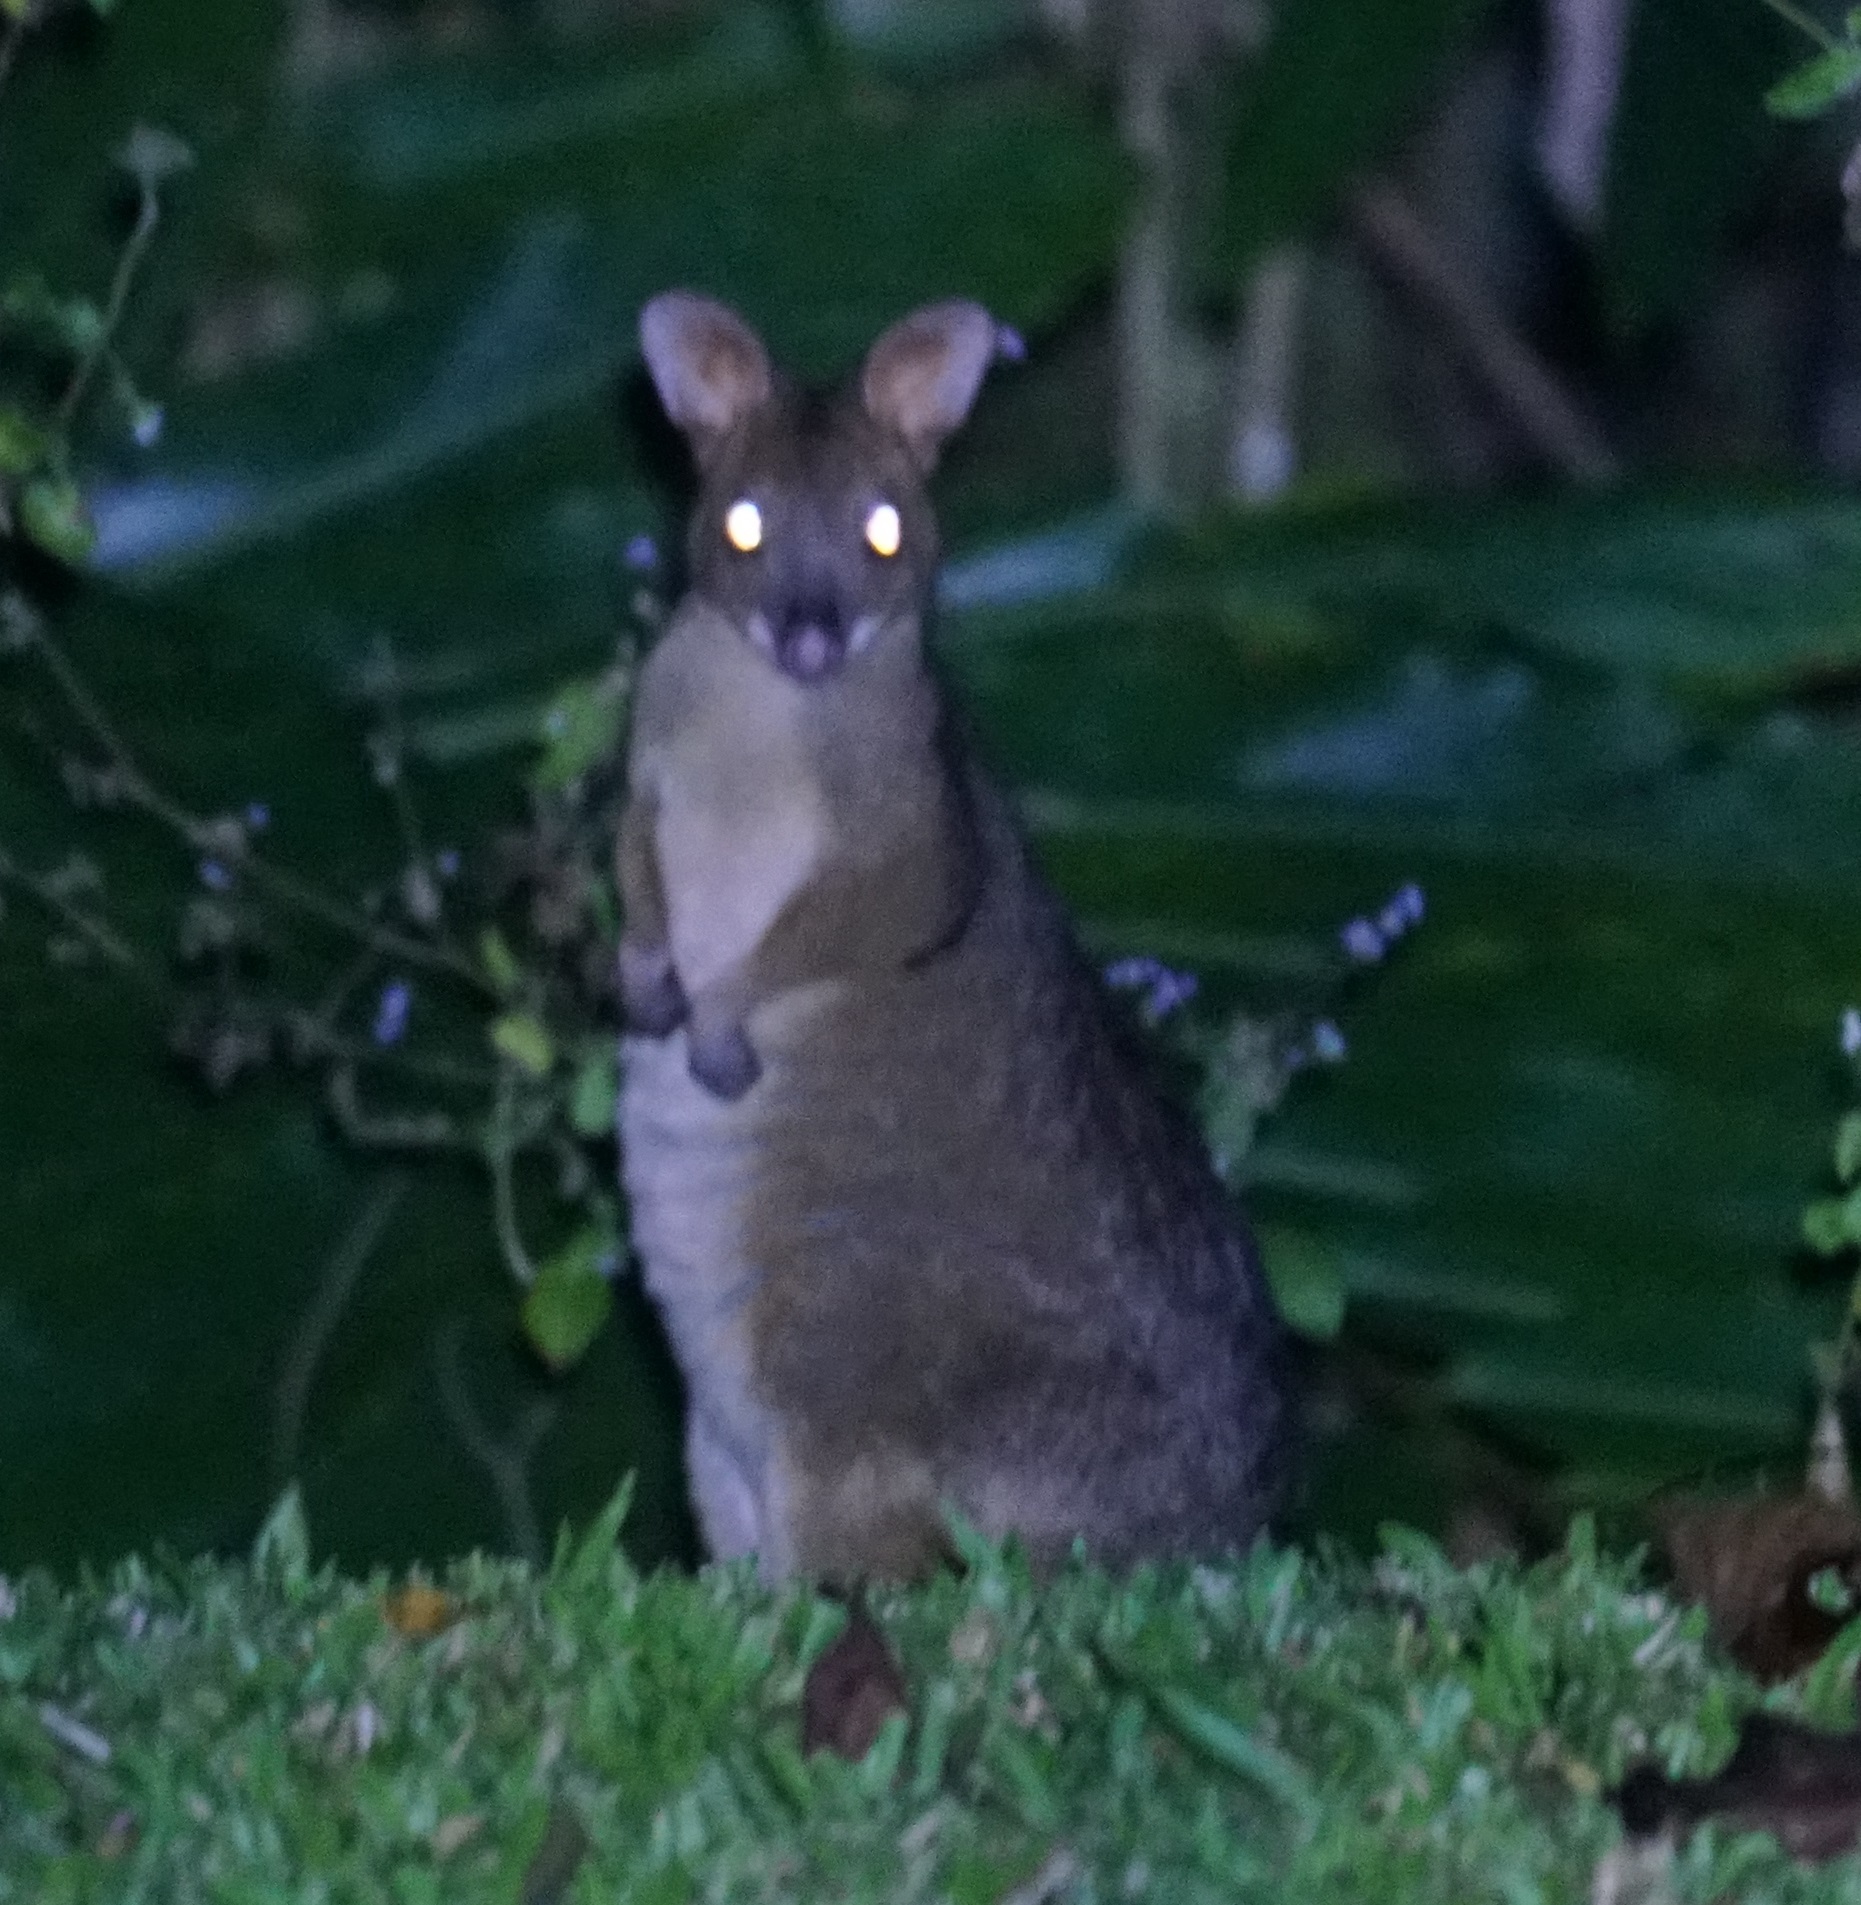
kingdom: Animalia
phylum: Chordata
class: Mammalia
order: Diprotodontia
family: Macropodidae
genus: Thylogale
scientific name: Thylogale stigmatica
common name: Red-legged pademelon
